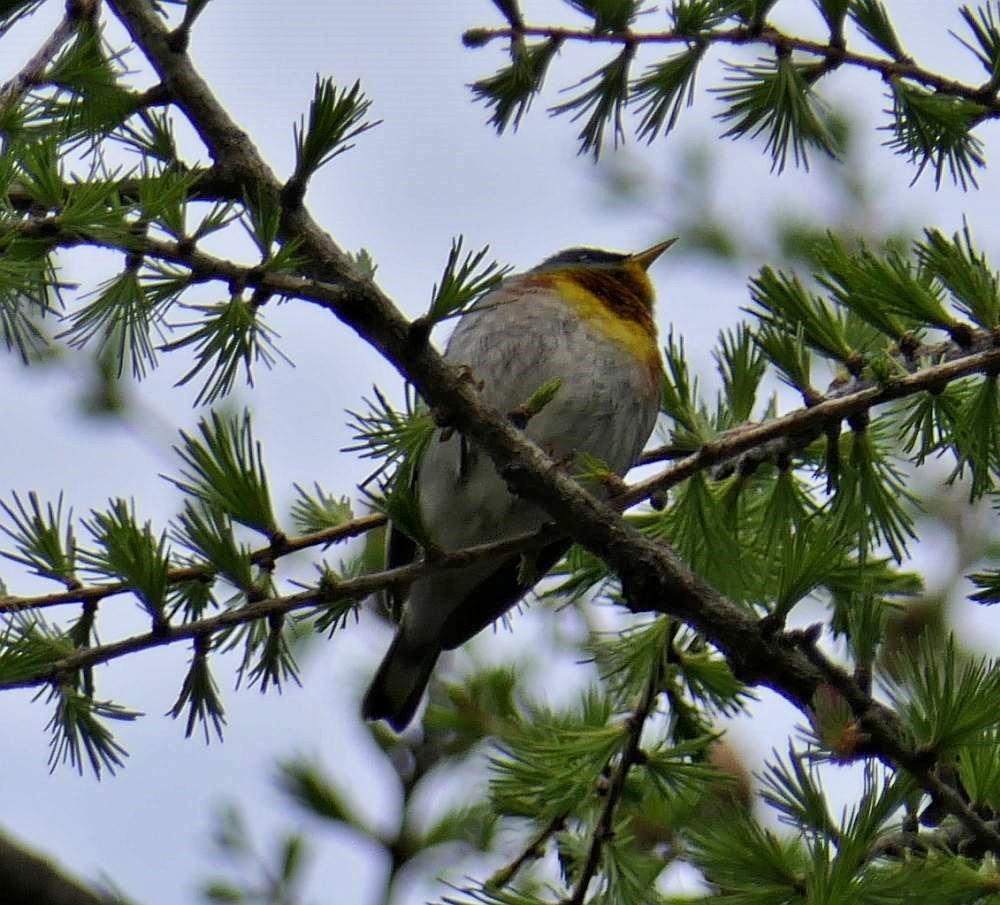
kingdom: Animalia
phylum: Chordata
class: Aves
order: Passeriformes
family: Parulidae
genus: Setophaga
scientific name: Setophaga americana
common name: Northern parula
